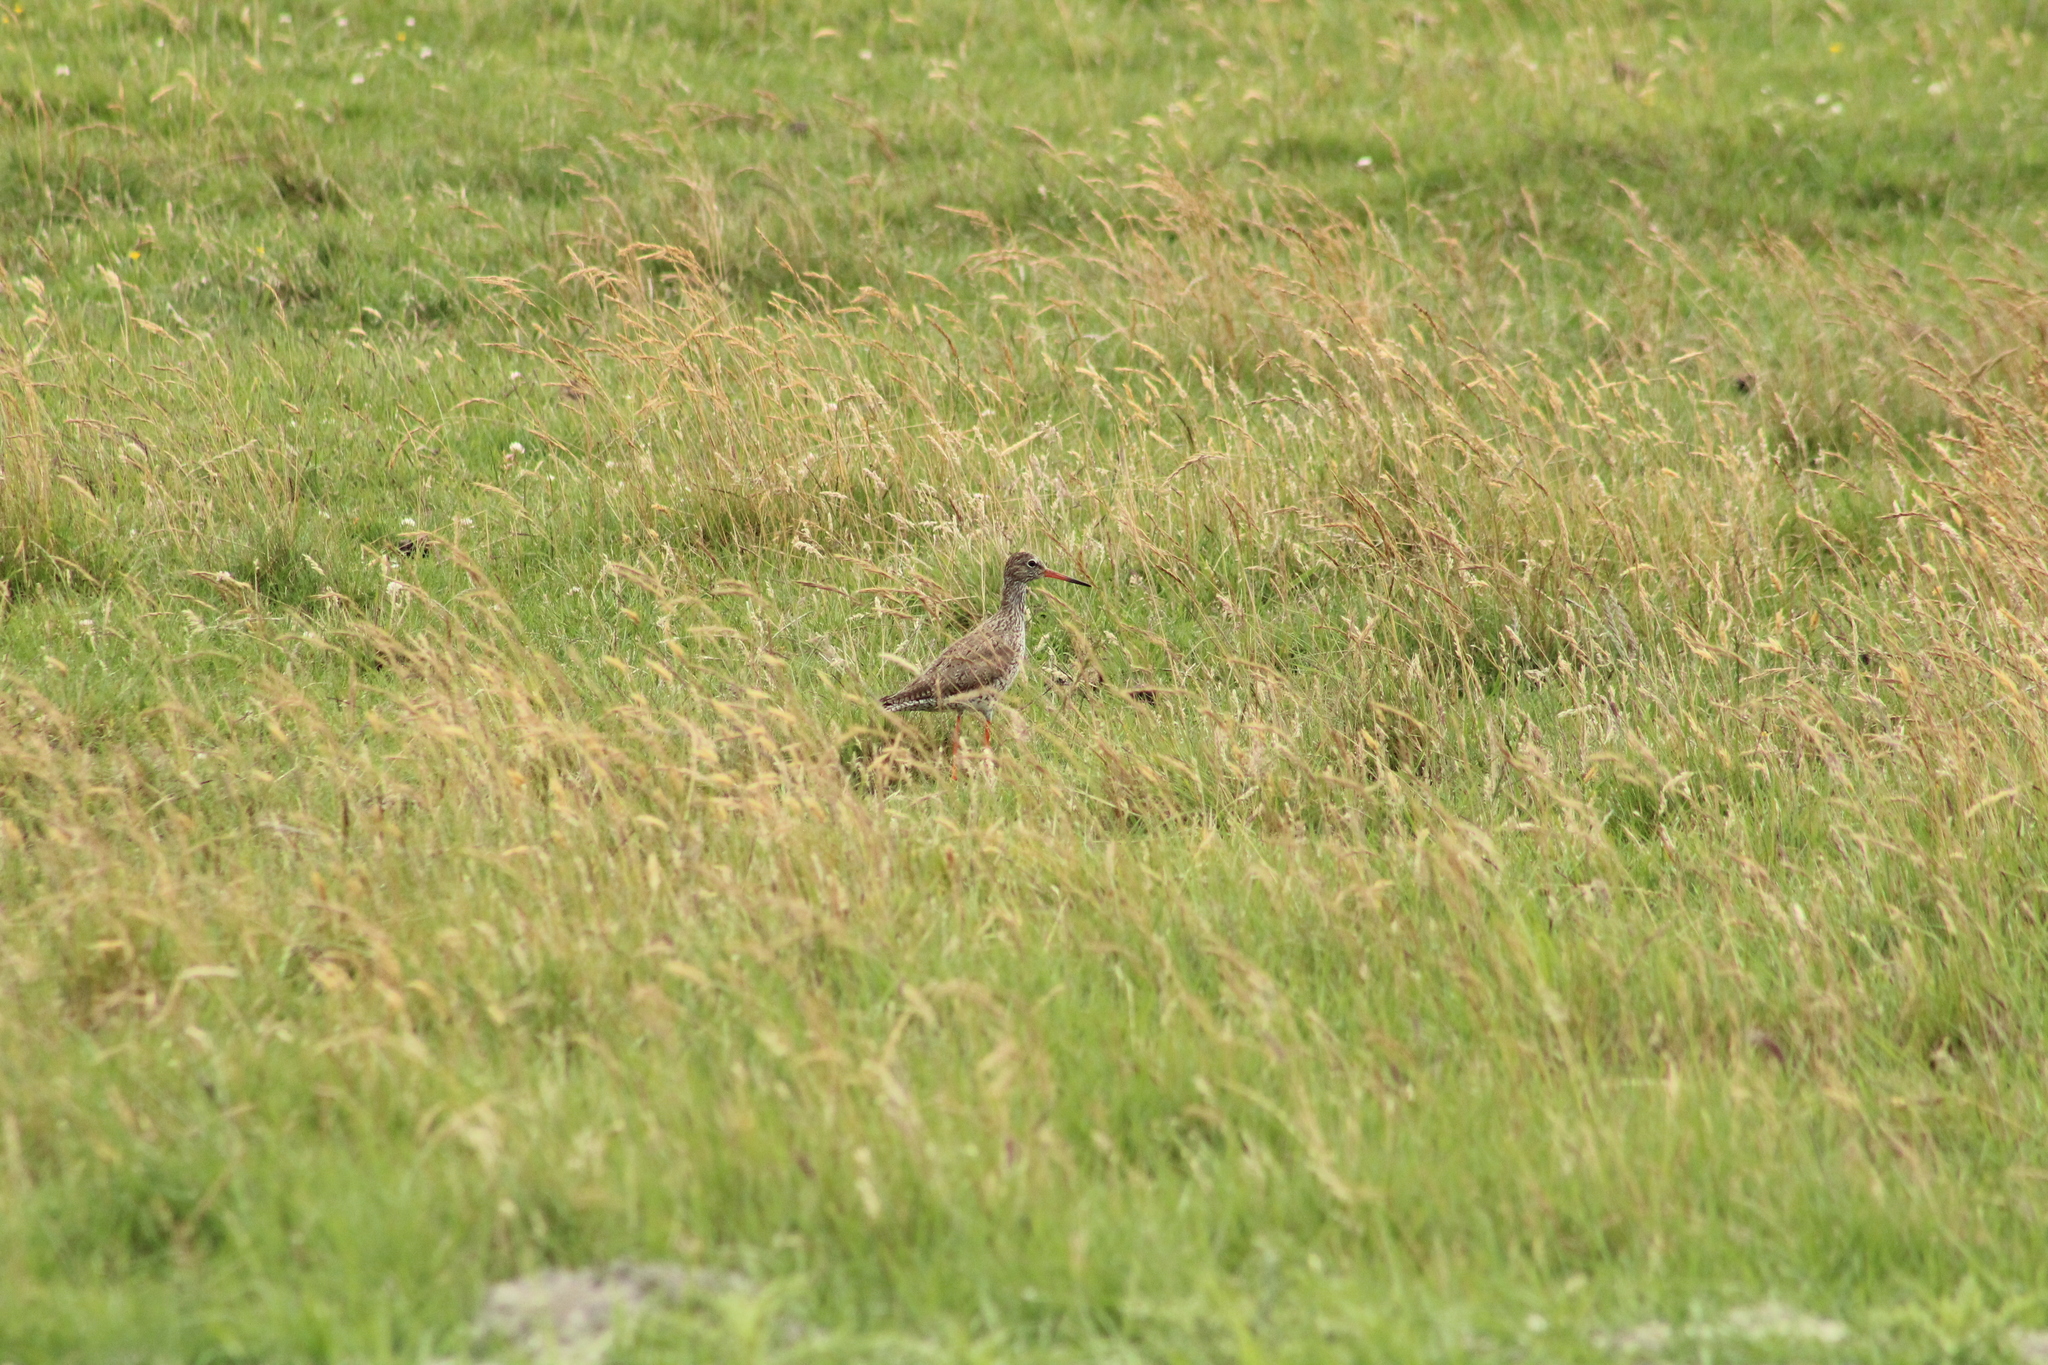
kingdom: Animalia
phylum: Chordata
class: Aves
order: Charadriiformes
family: Scolopacidae
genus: Tringa
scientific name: Tringa totanus
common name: Common redshank
